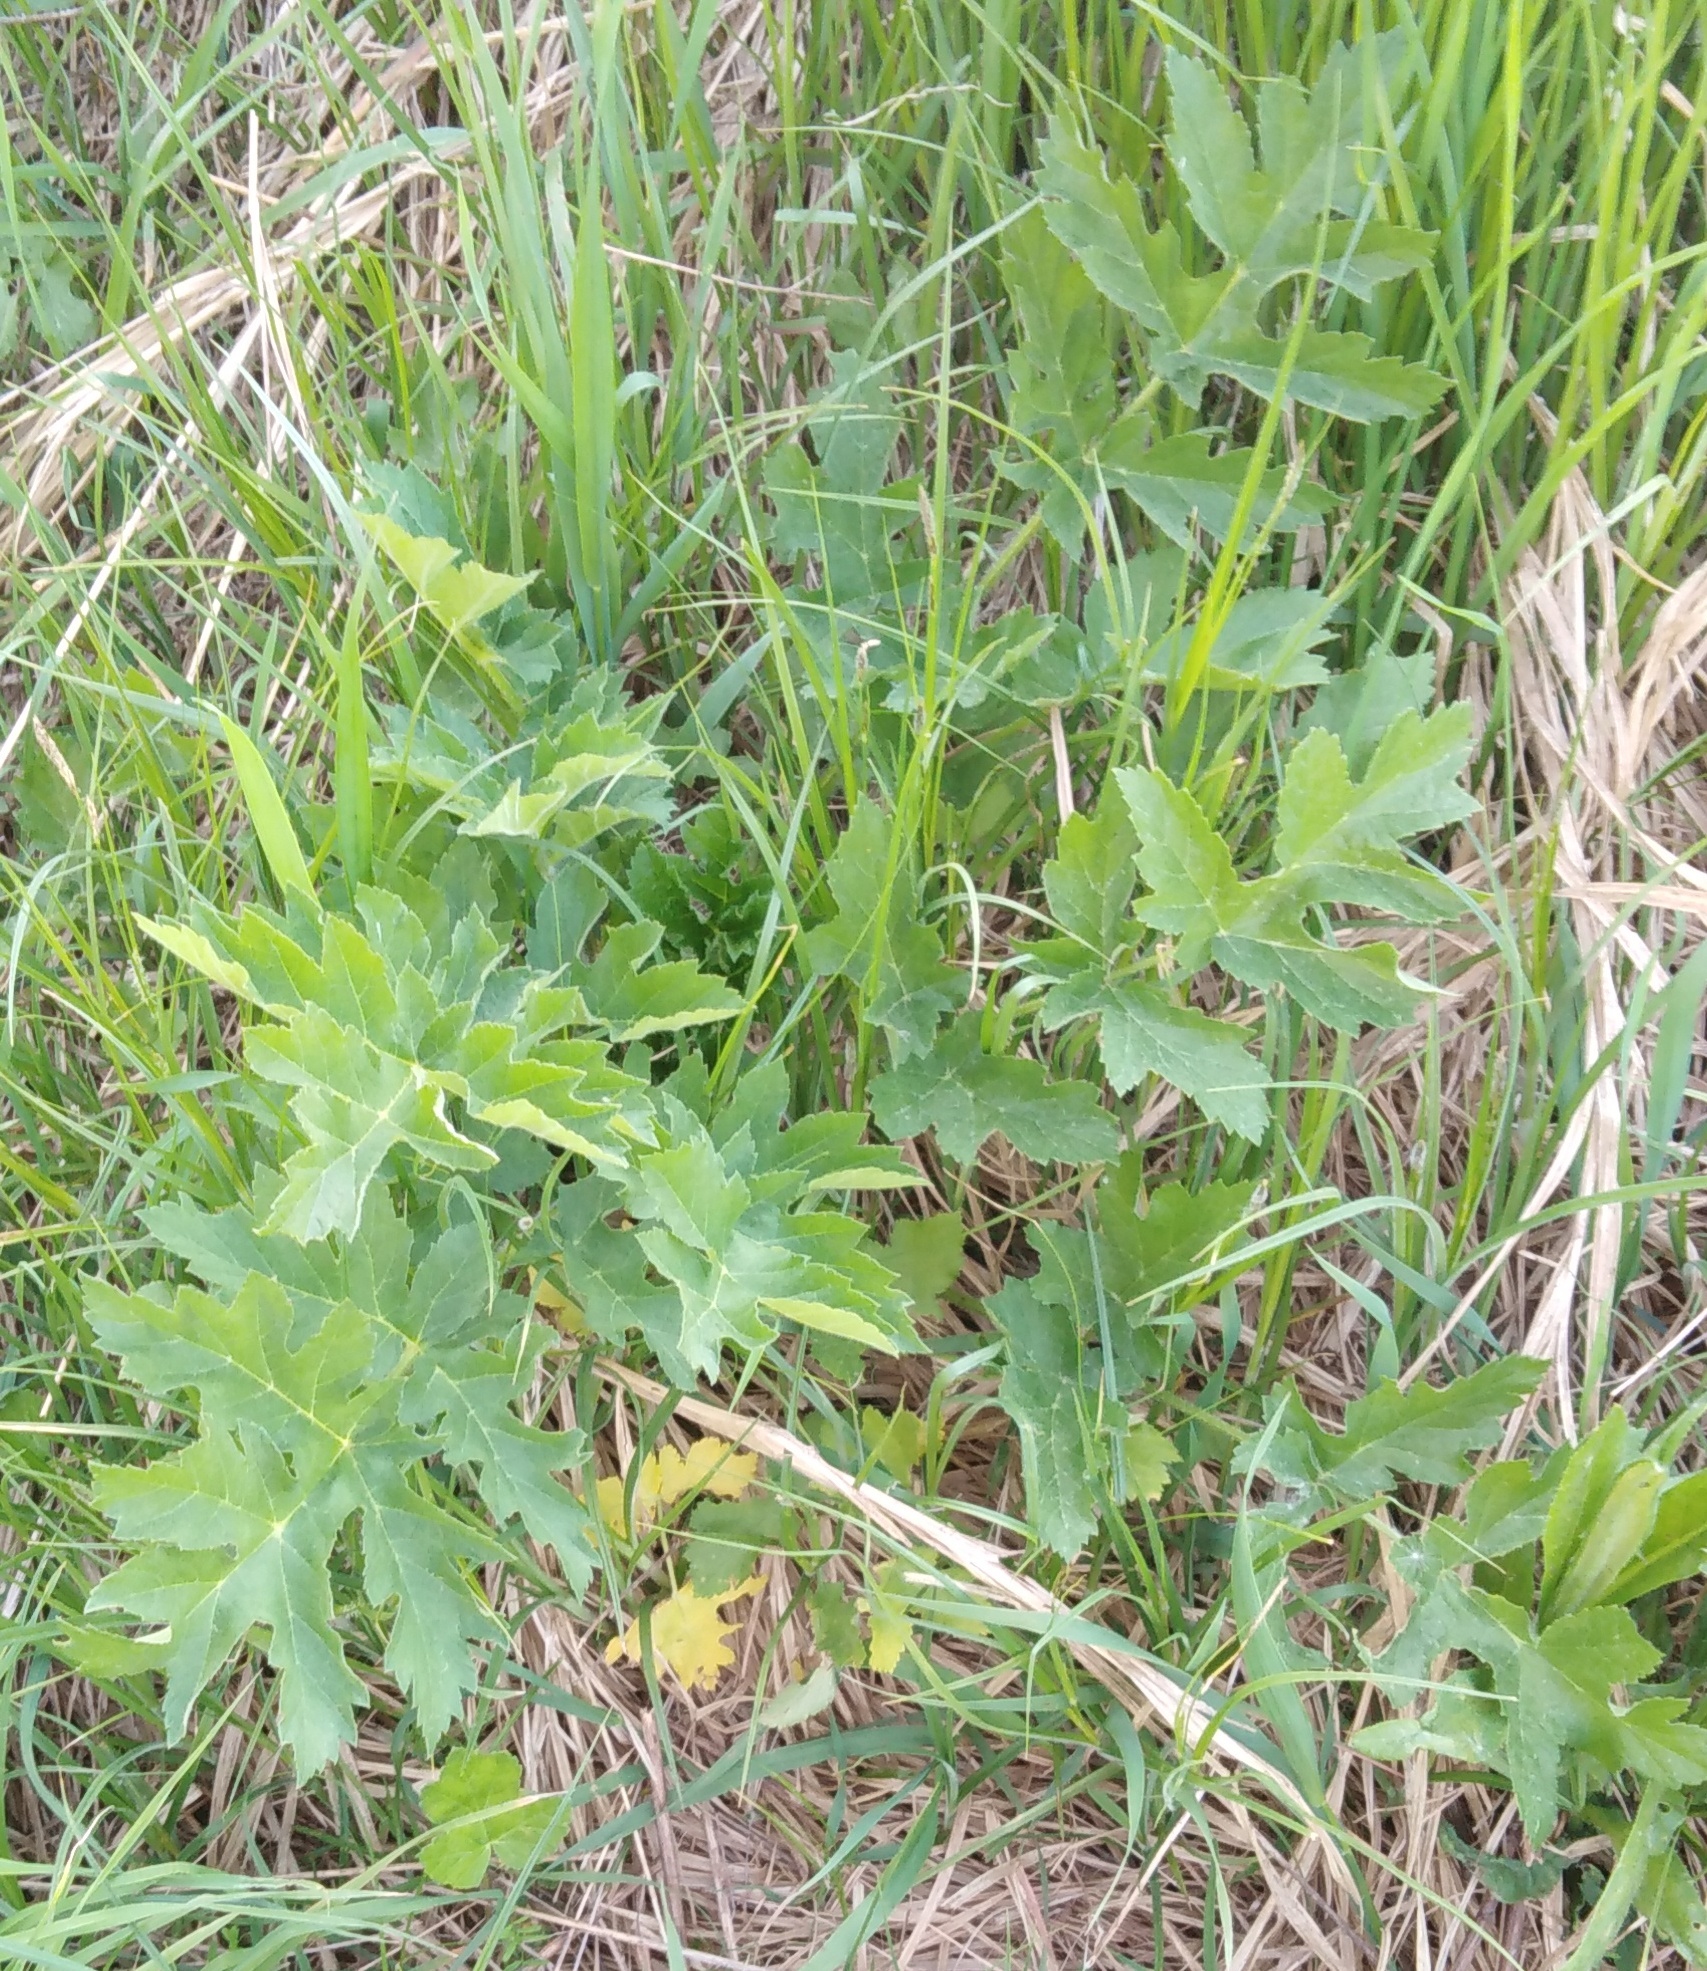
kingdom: Plantae
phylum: Tracheophyta
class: Magnoliopsida
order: Apiales
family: Apiaceae
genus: Heracleum
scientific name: Heracleum sphondylium
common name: Hogweed
